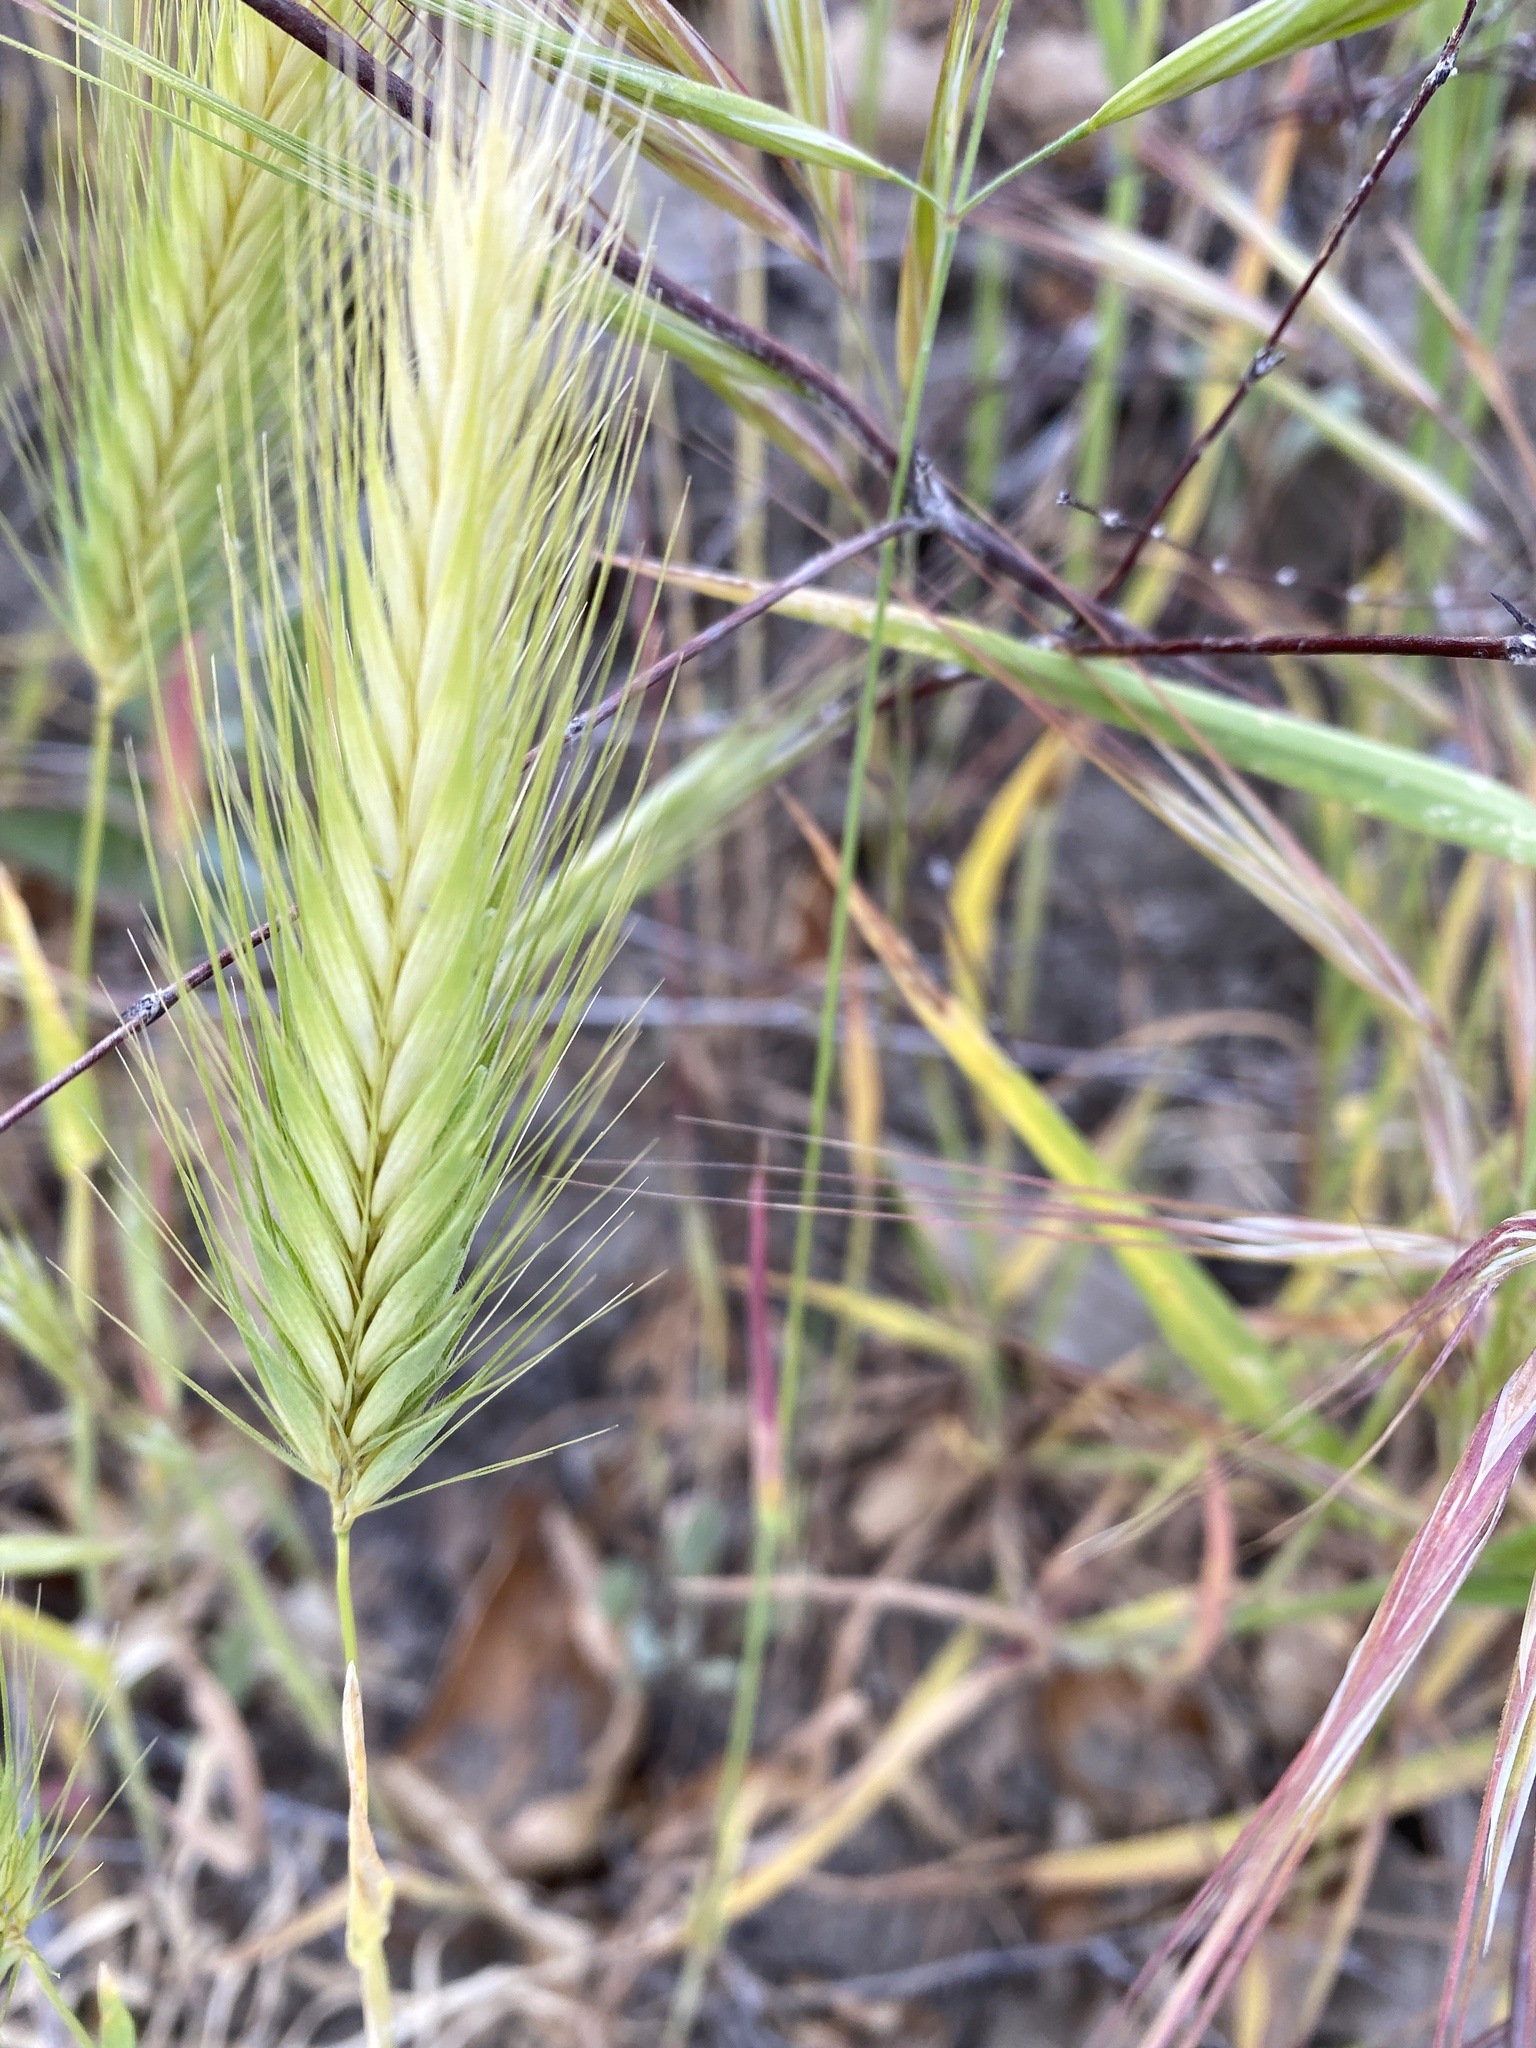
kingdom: Plantae
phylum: Tracheophyta
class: Liliopsida
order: Poales
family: Poaceae
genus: Hordeum
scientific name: Hordeum murinum
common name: Wall barley
